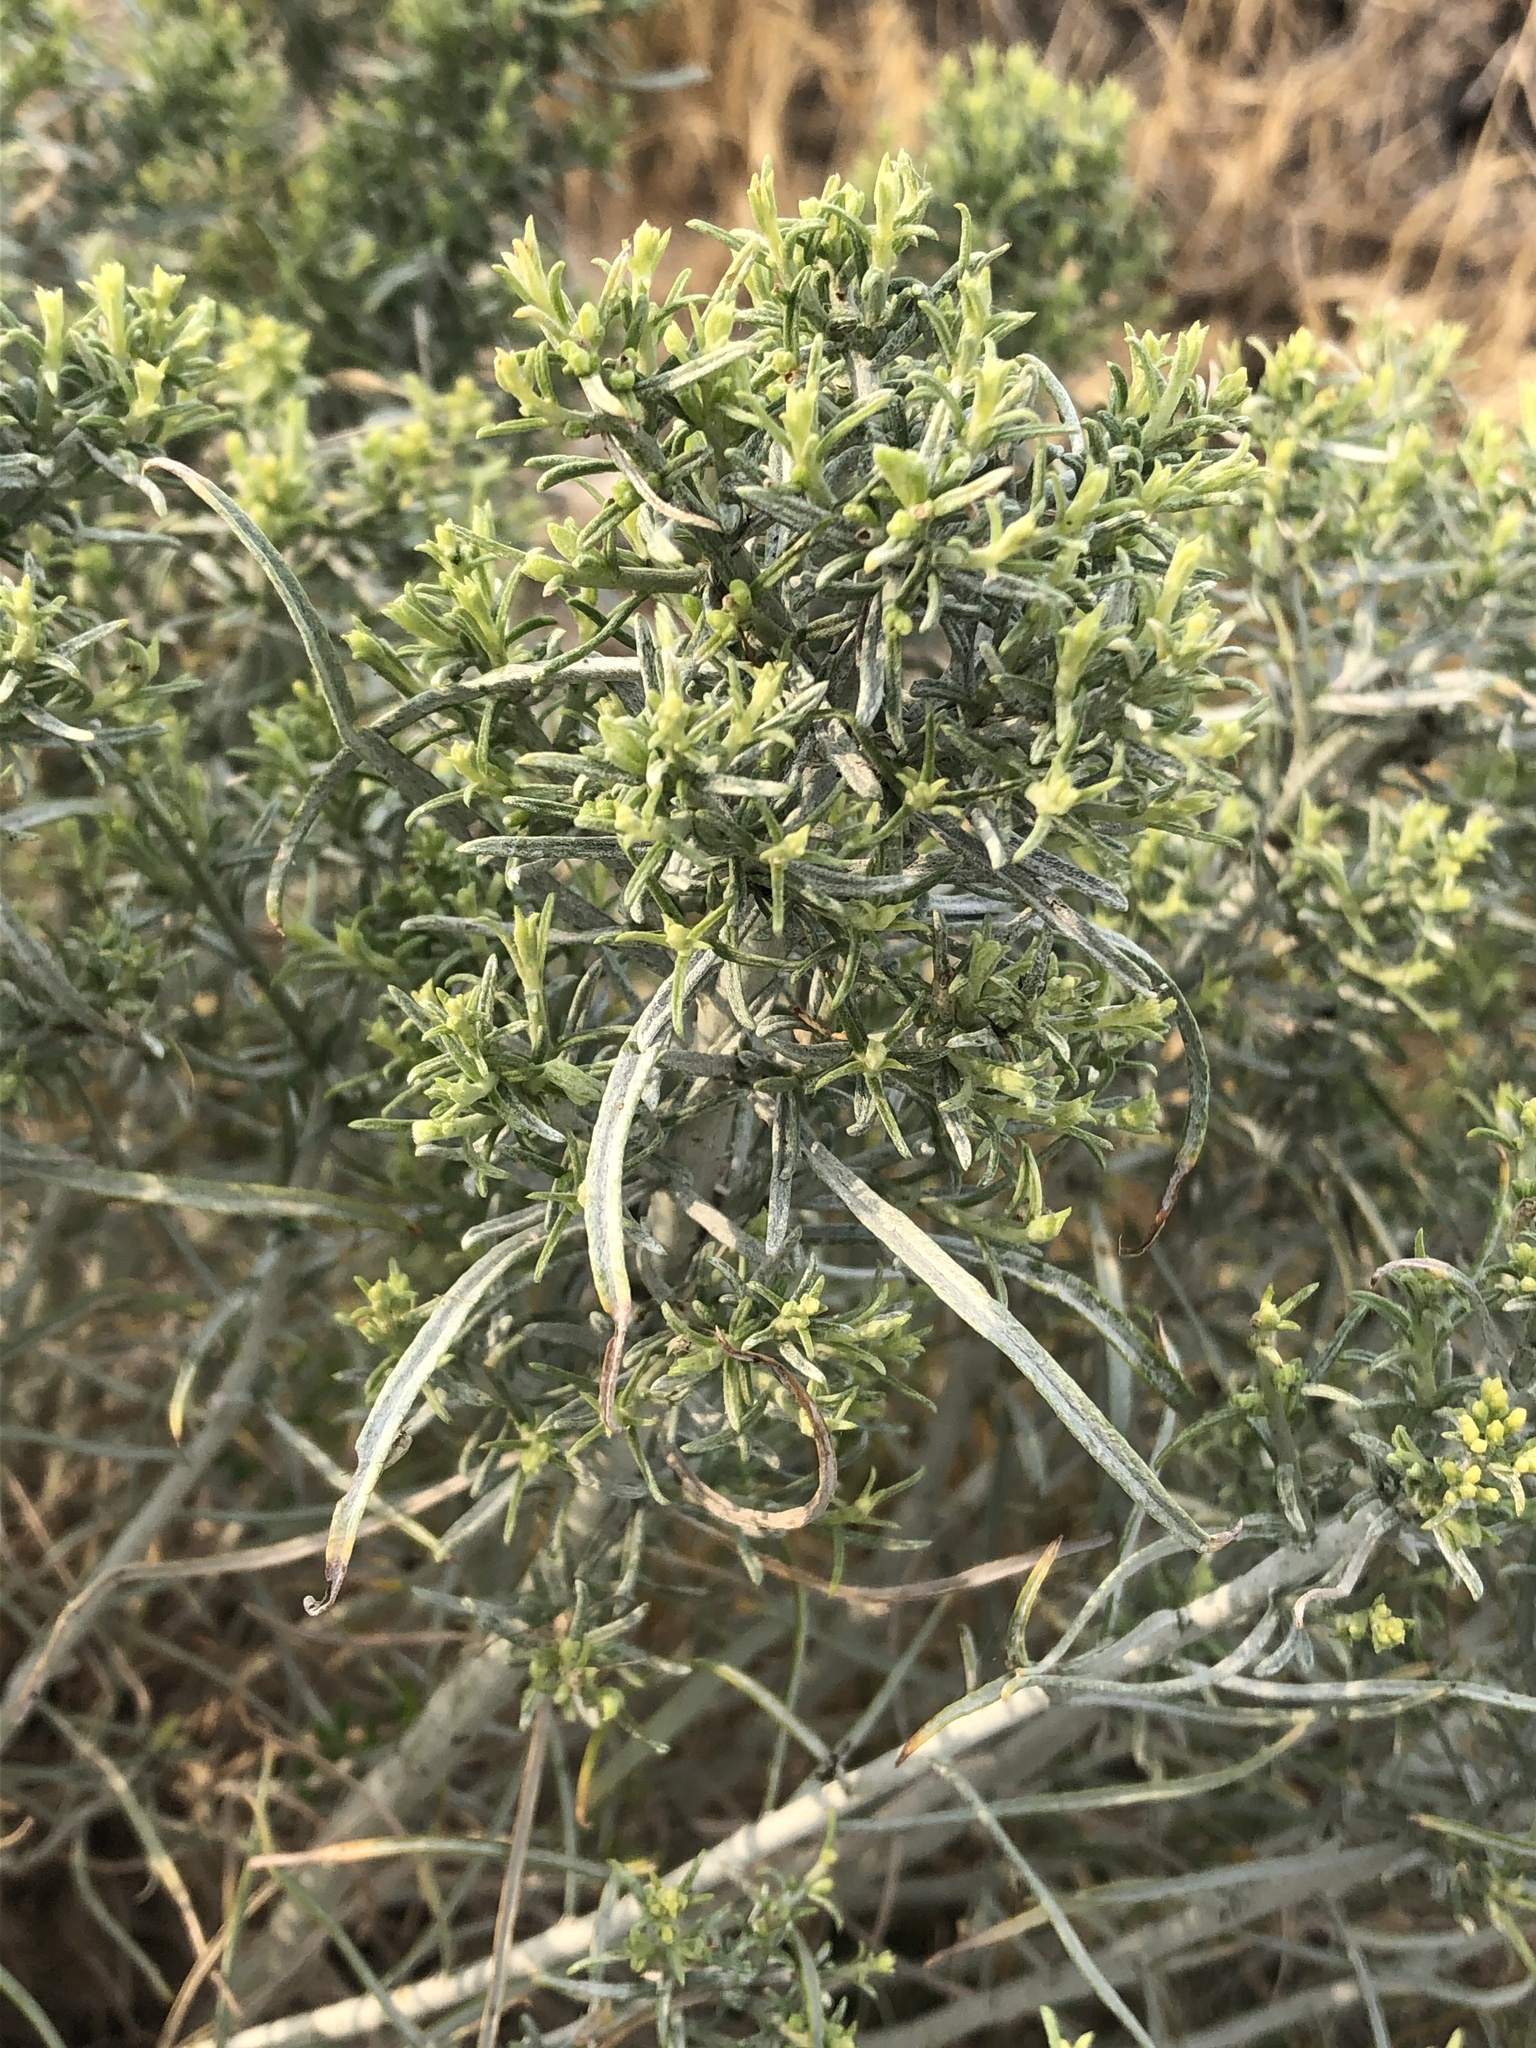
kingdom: Plantae
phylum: Tracheophyta
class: Magnoliopsida
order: Asterales
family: Asteraceae
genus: Ericameria
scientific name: Ericameria nauseosa
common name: Rubber rabbitbrush
